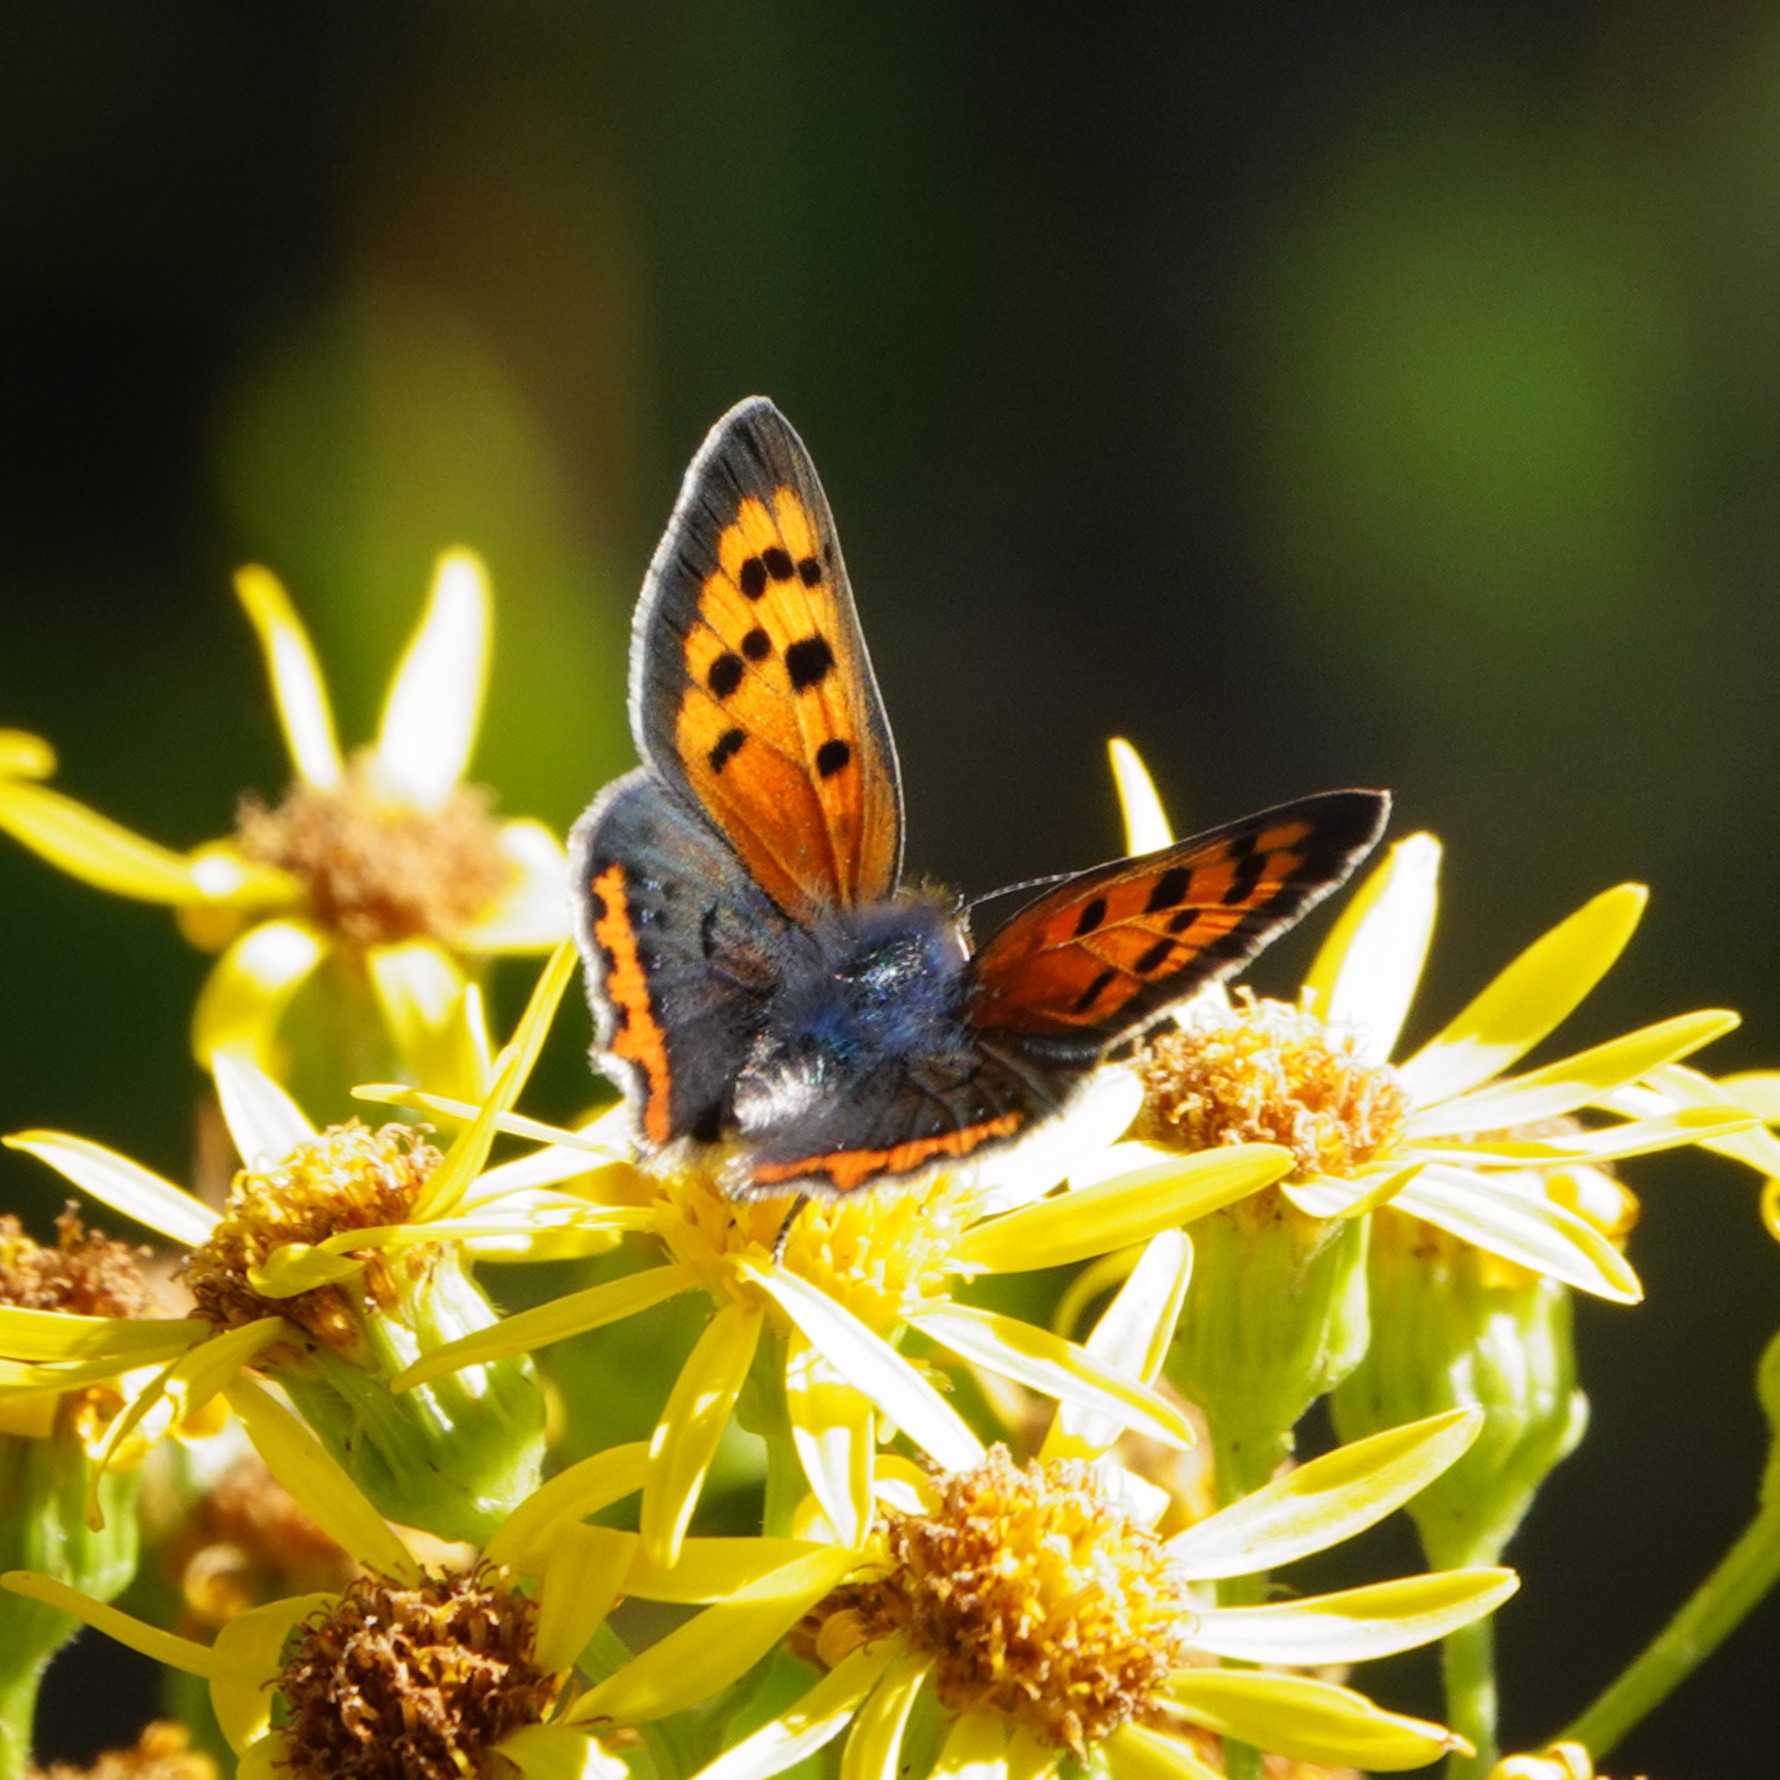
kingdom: Animalia
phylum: Arthropoda
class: Insecta
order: Lepidoptera
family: Lycaenidae
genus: Lycaena
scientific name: Lycaena phlaeas
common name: Small copper
